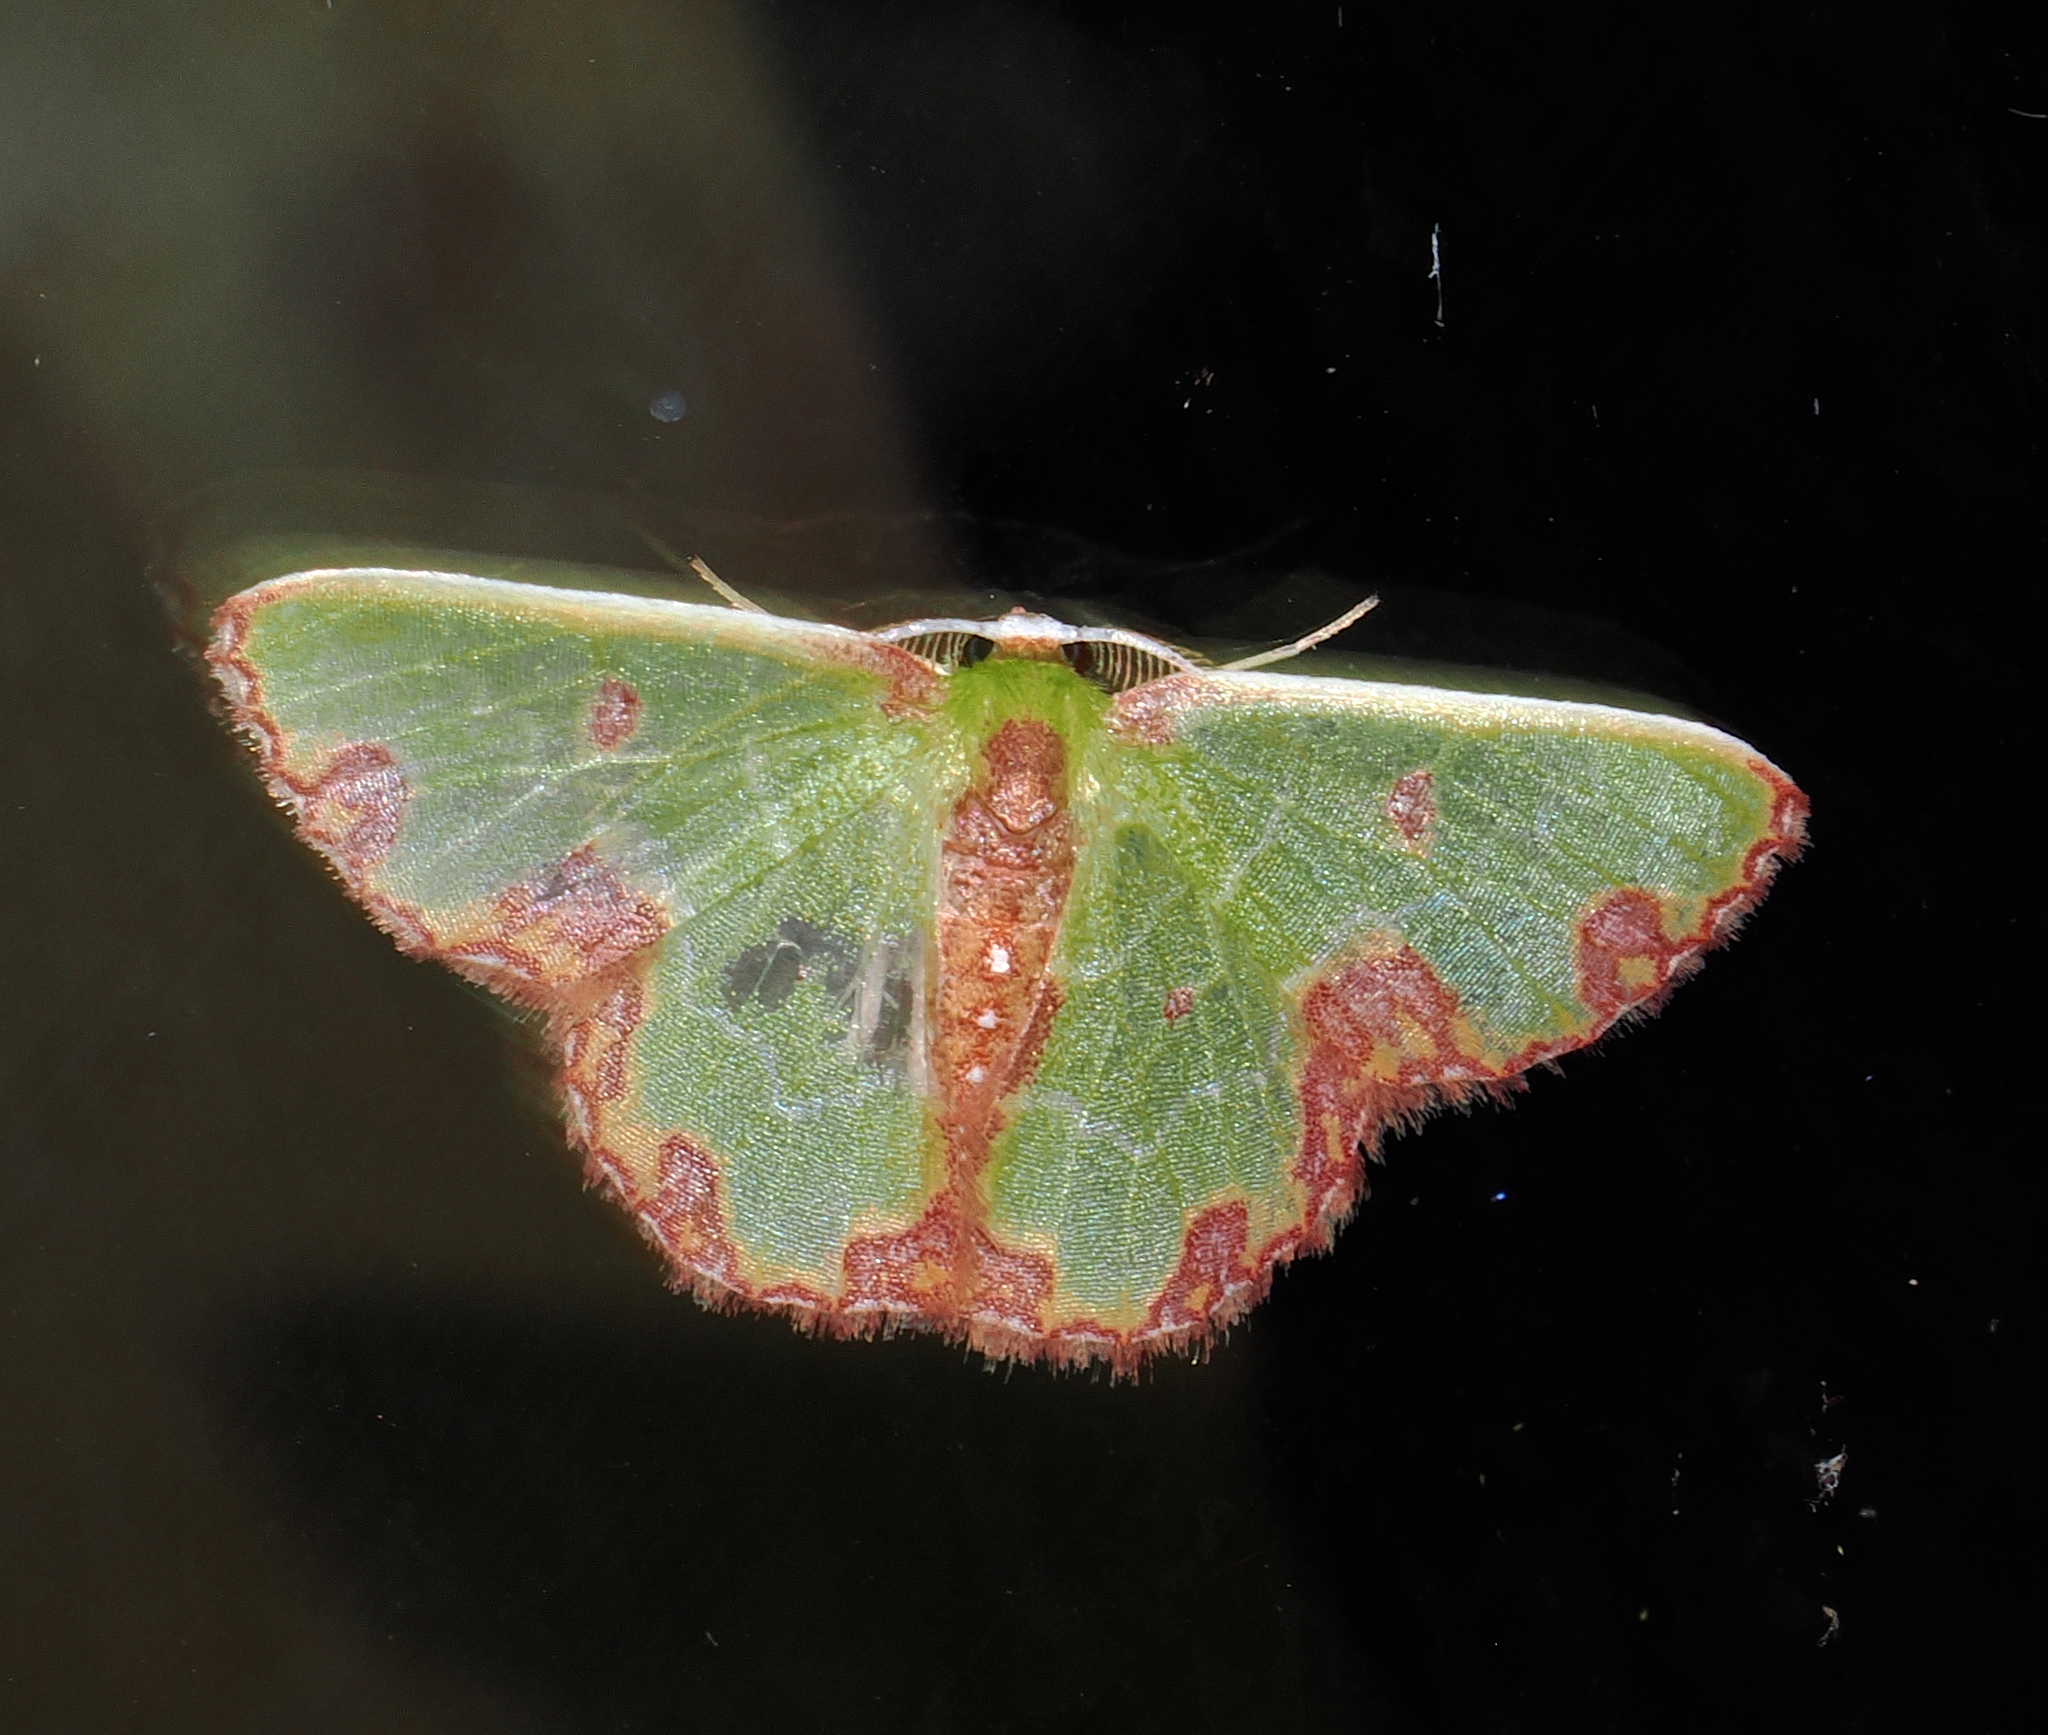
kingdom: Animalia
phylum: Arthropoda
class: Insecta
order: Lepidoptera
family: Geometridae
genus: Synchlora
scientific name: Synchlora gerularia
